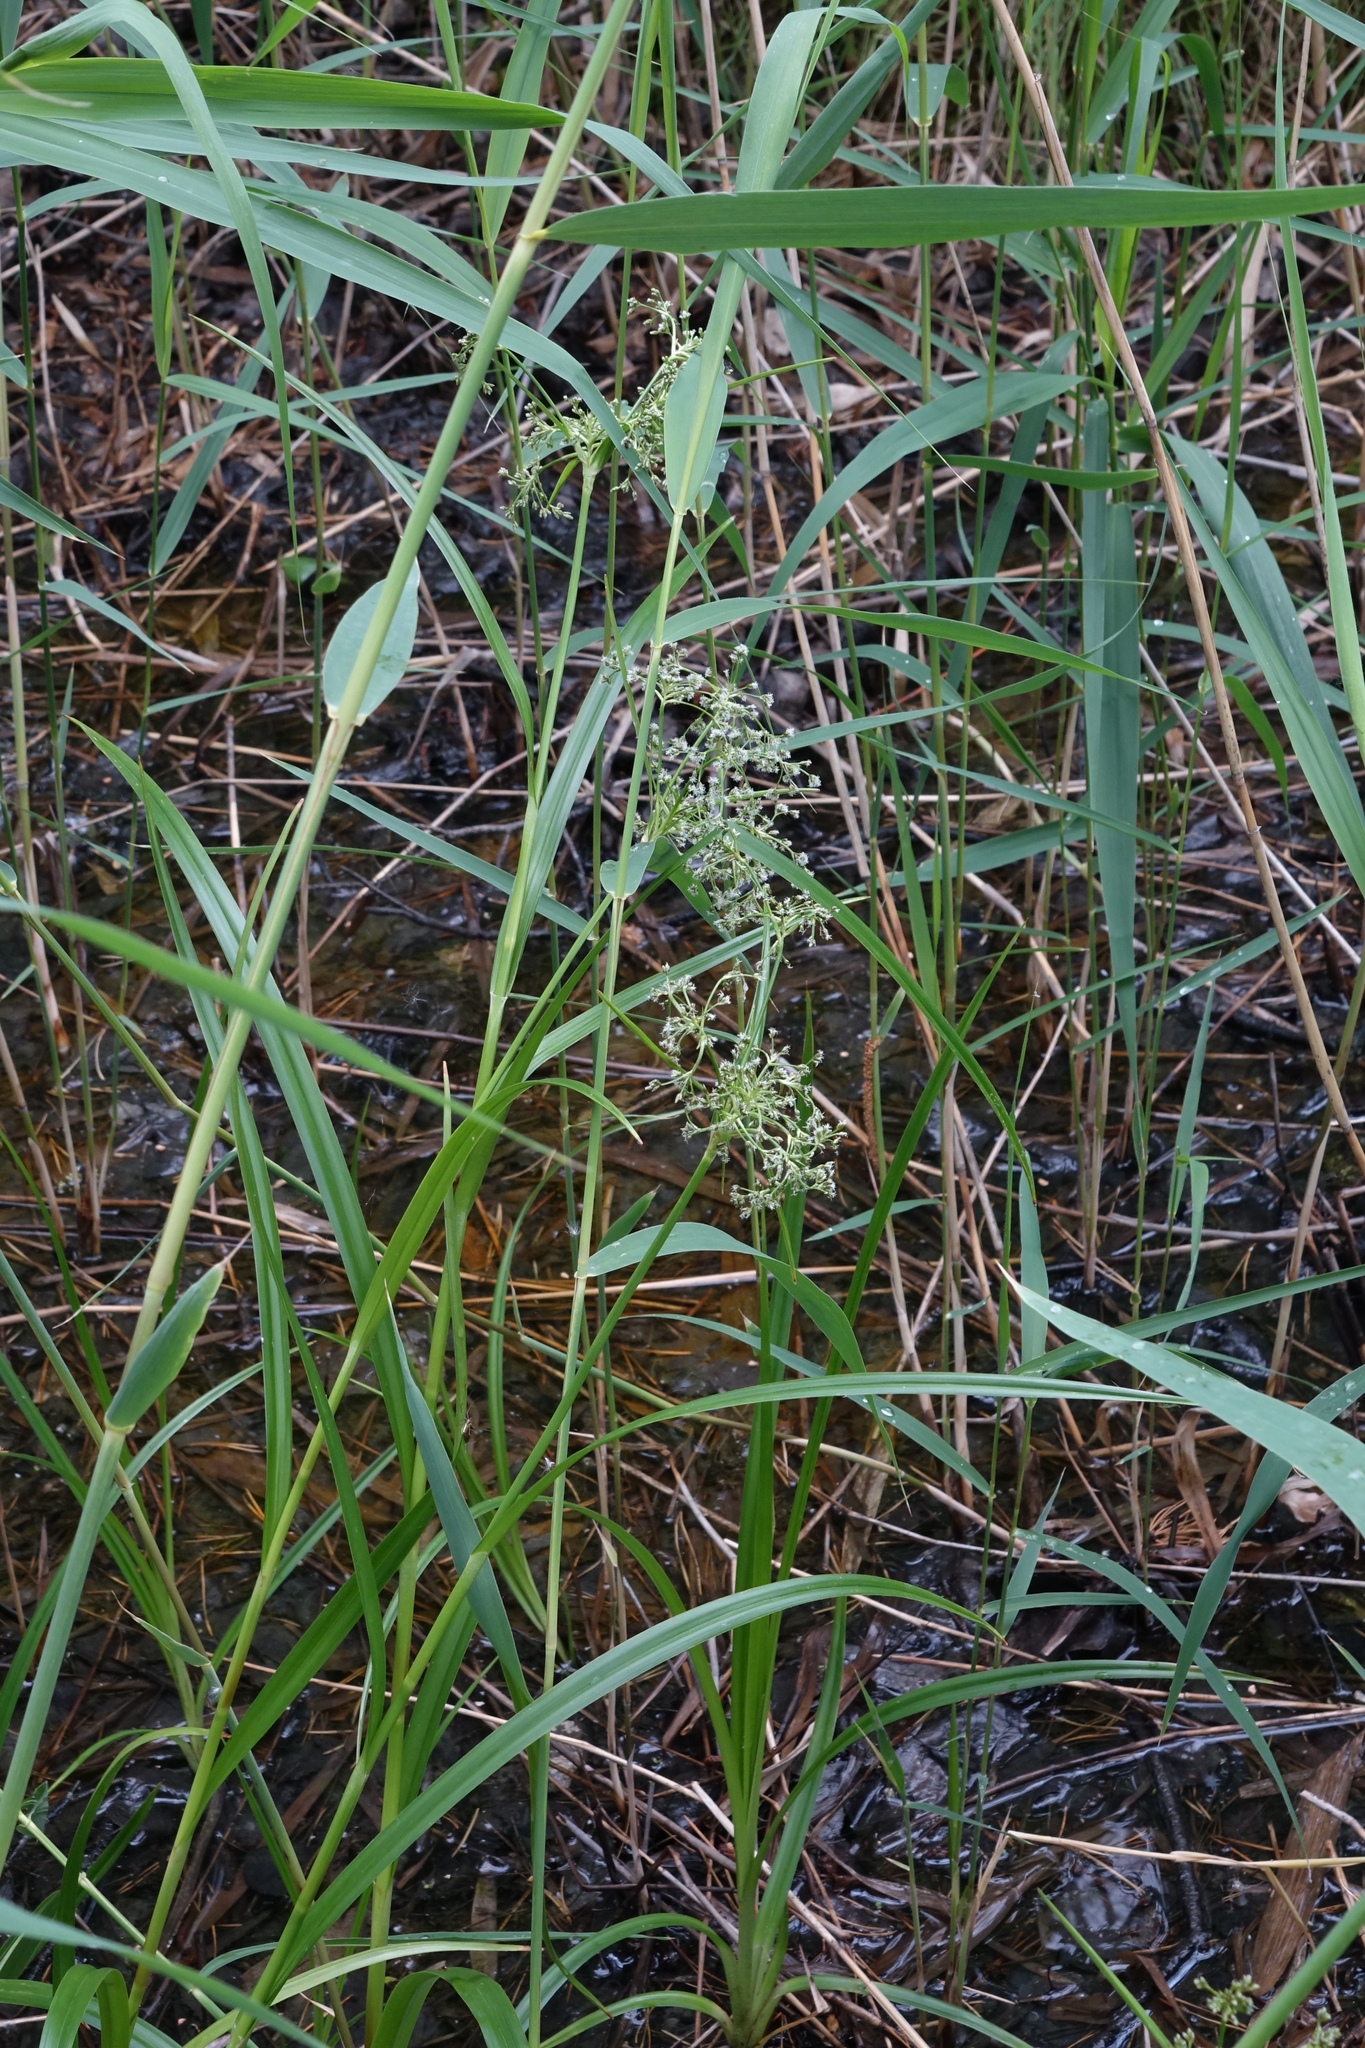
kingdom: Plantae
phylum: Tracheophyta
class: Liliopsida
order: Poales
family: Cyperaceae
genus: Scirpus
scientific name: Scirpus sylvaticus
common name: Wood club-rush
